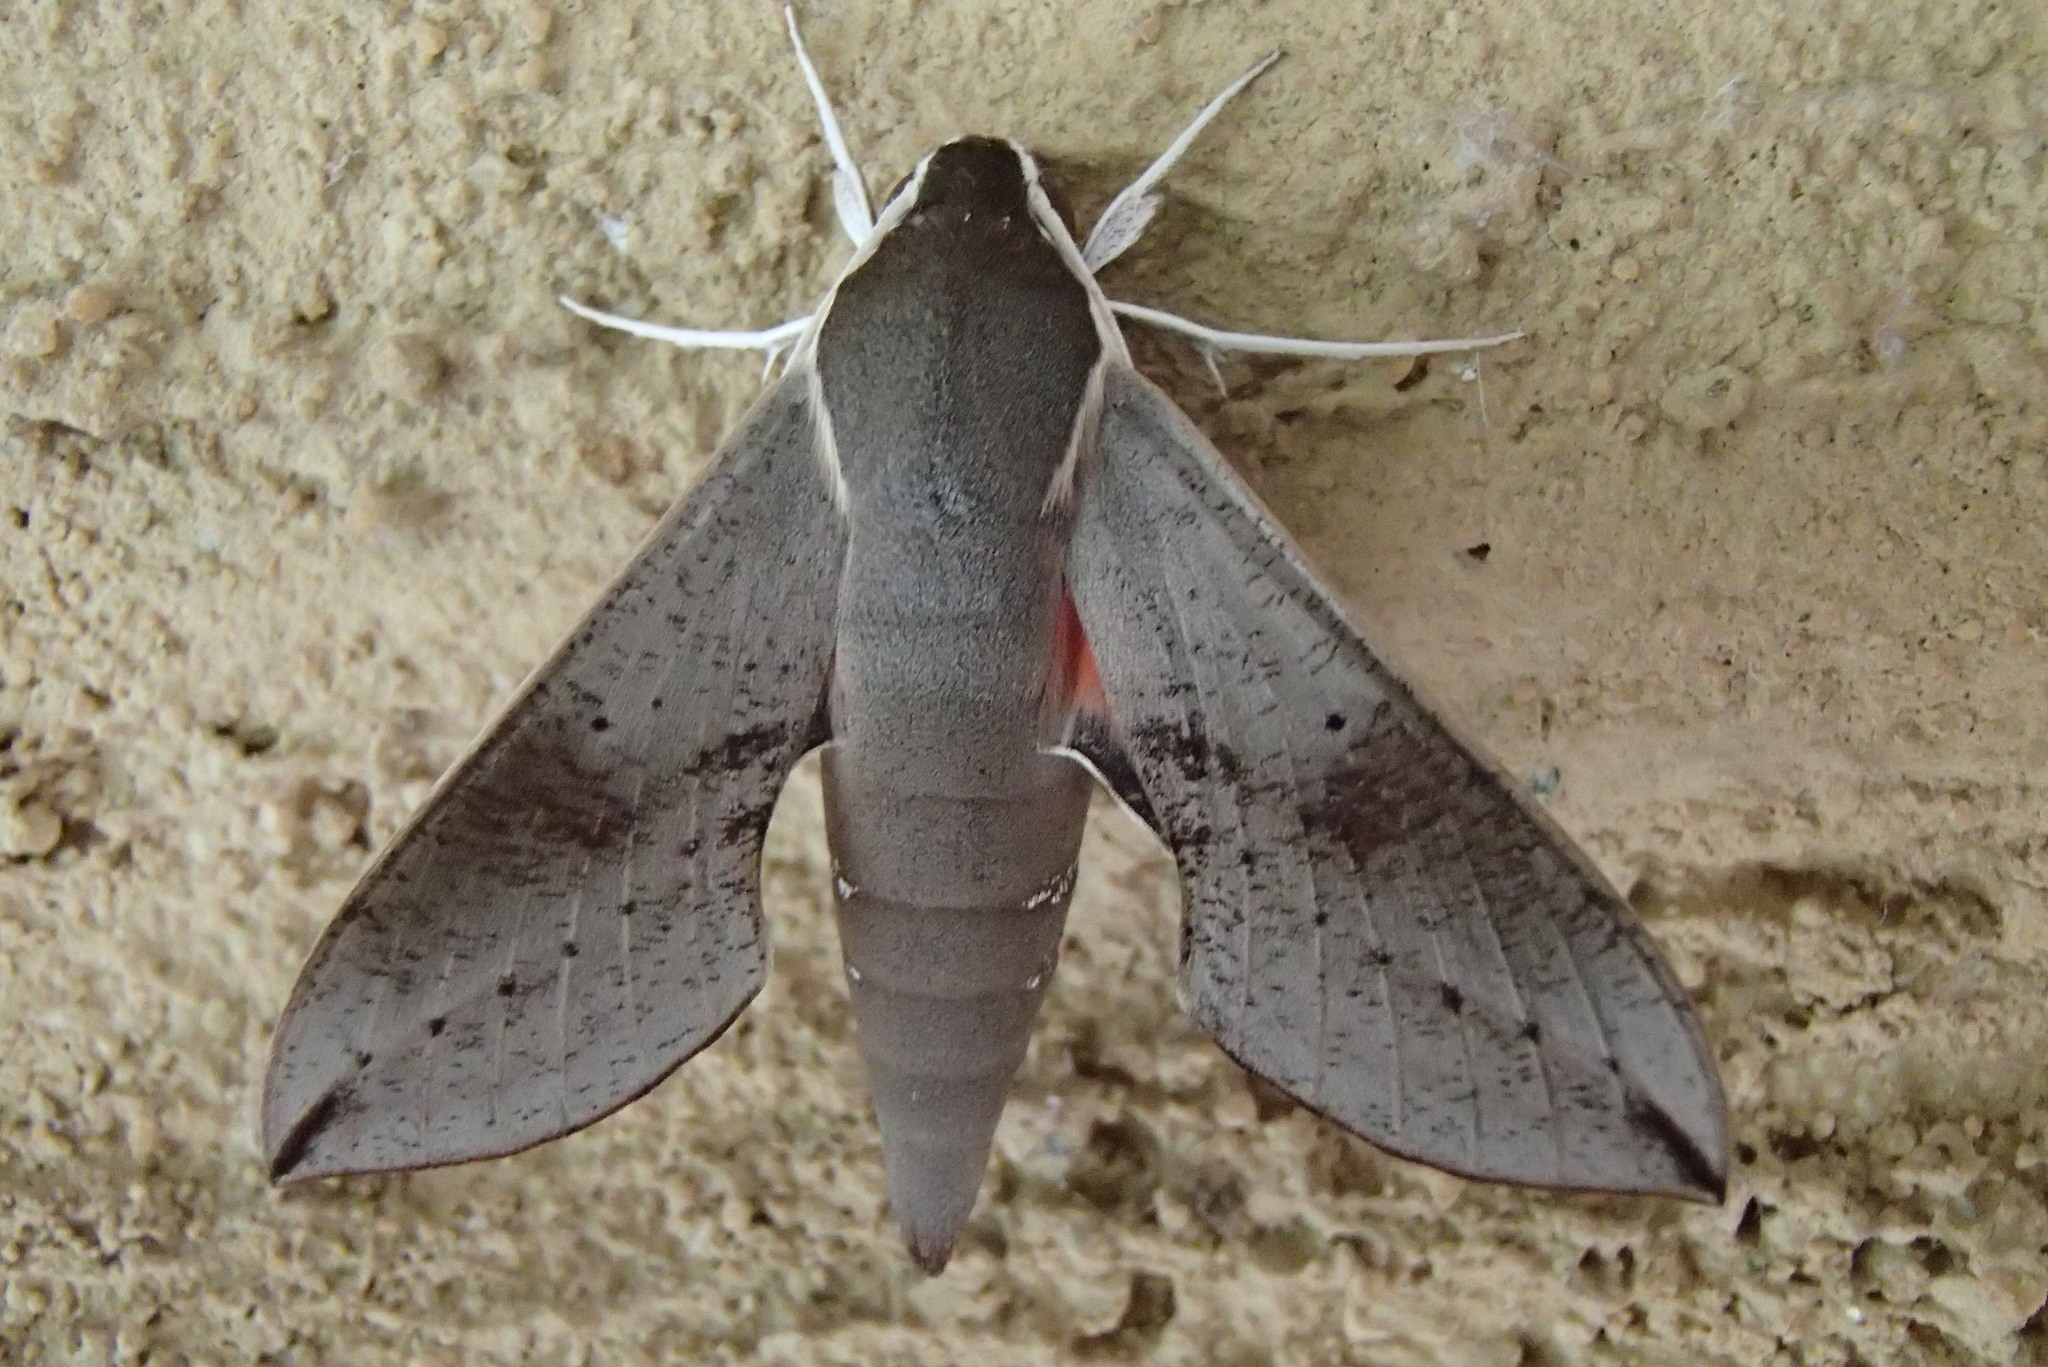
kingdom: Animalia
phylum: Arthropoda
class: Insecta
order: Lepidoptera
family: Sphingidae
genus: Hippotion
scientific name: Hippotion scrofa
